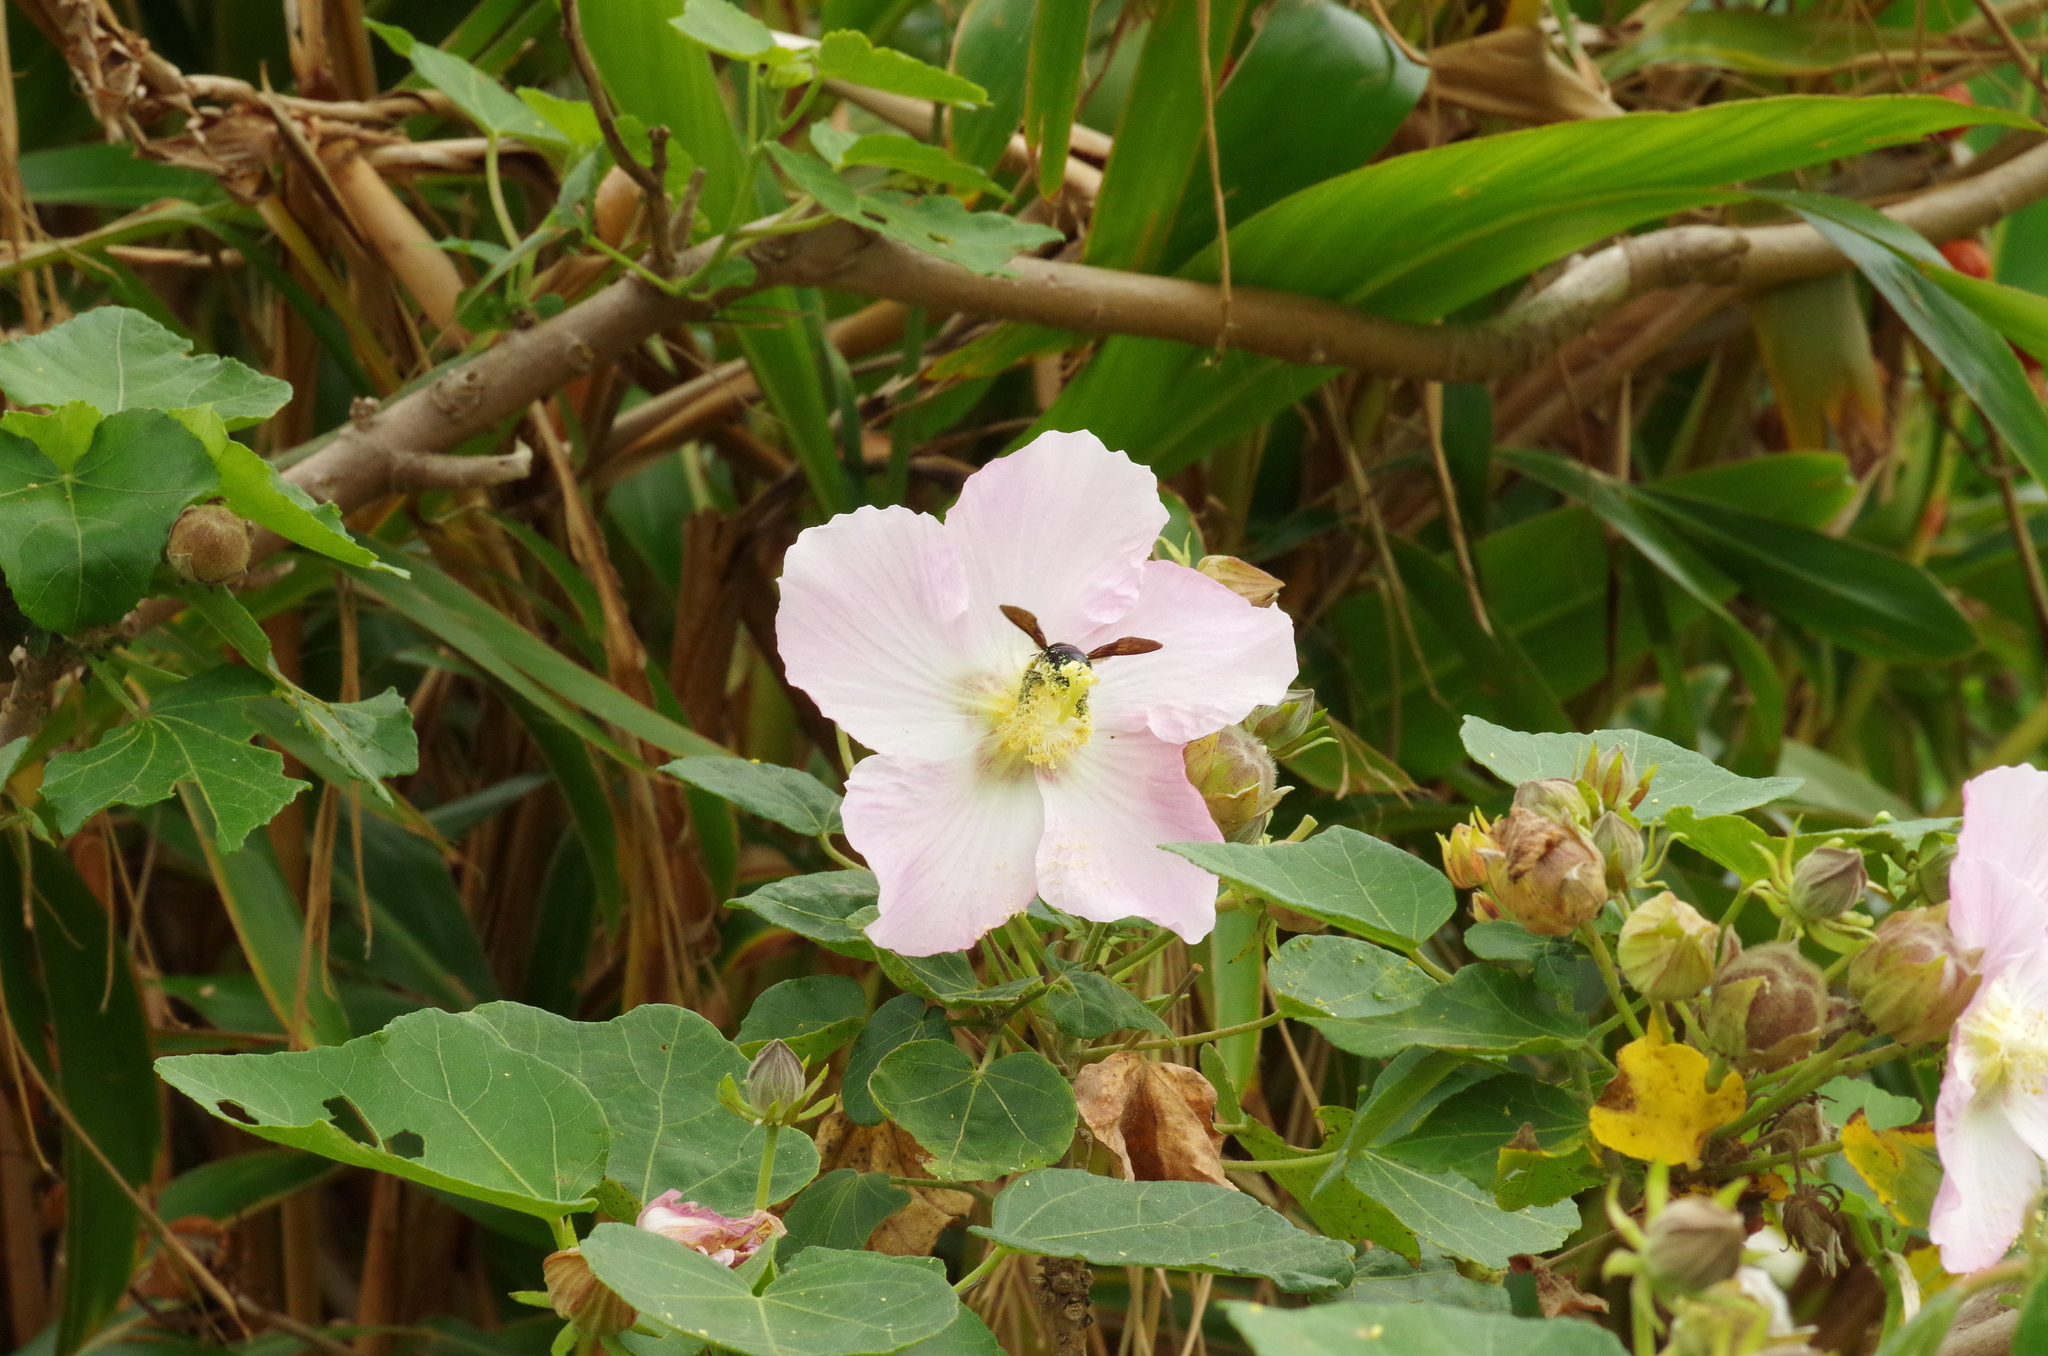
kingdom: Animalia
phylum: Arthropoda
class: Insecta
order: Hymenoptera
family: Apidae
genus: Xylocopa
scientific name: Xylocopa flavifrons
